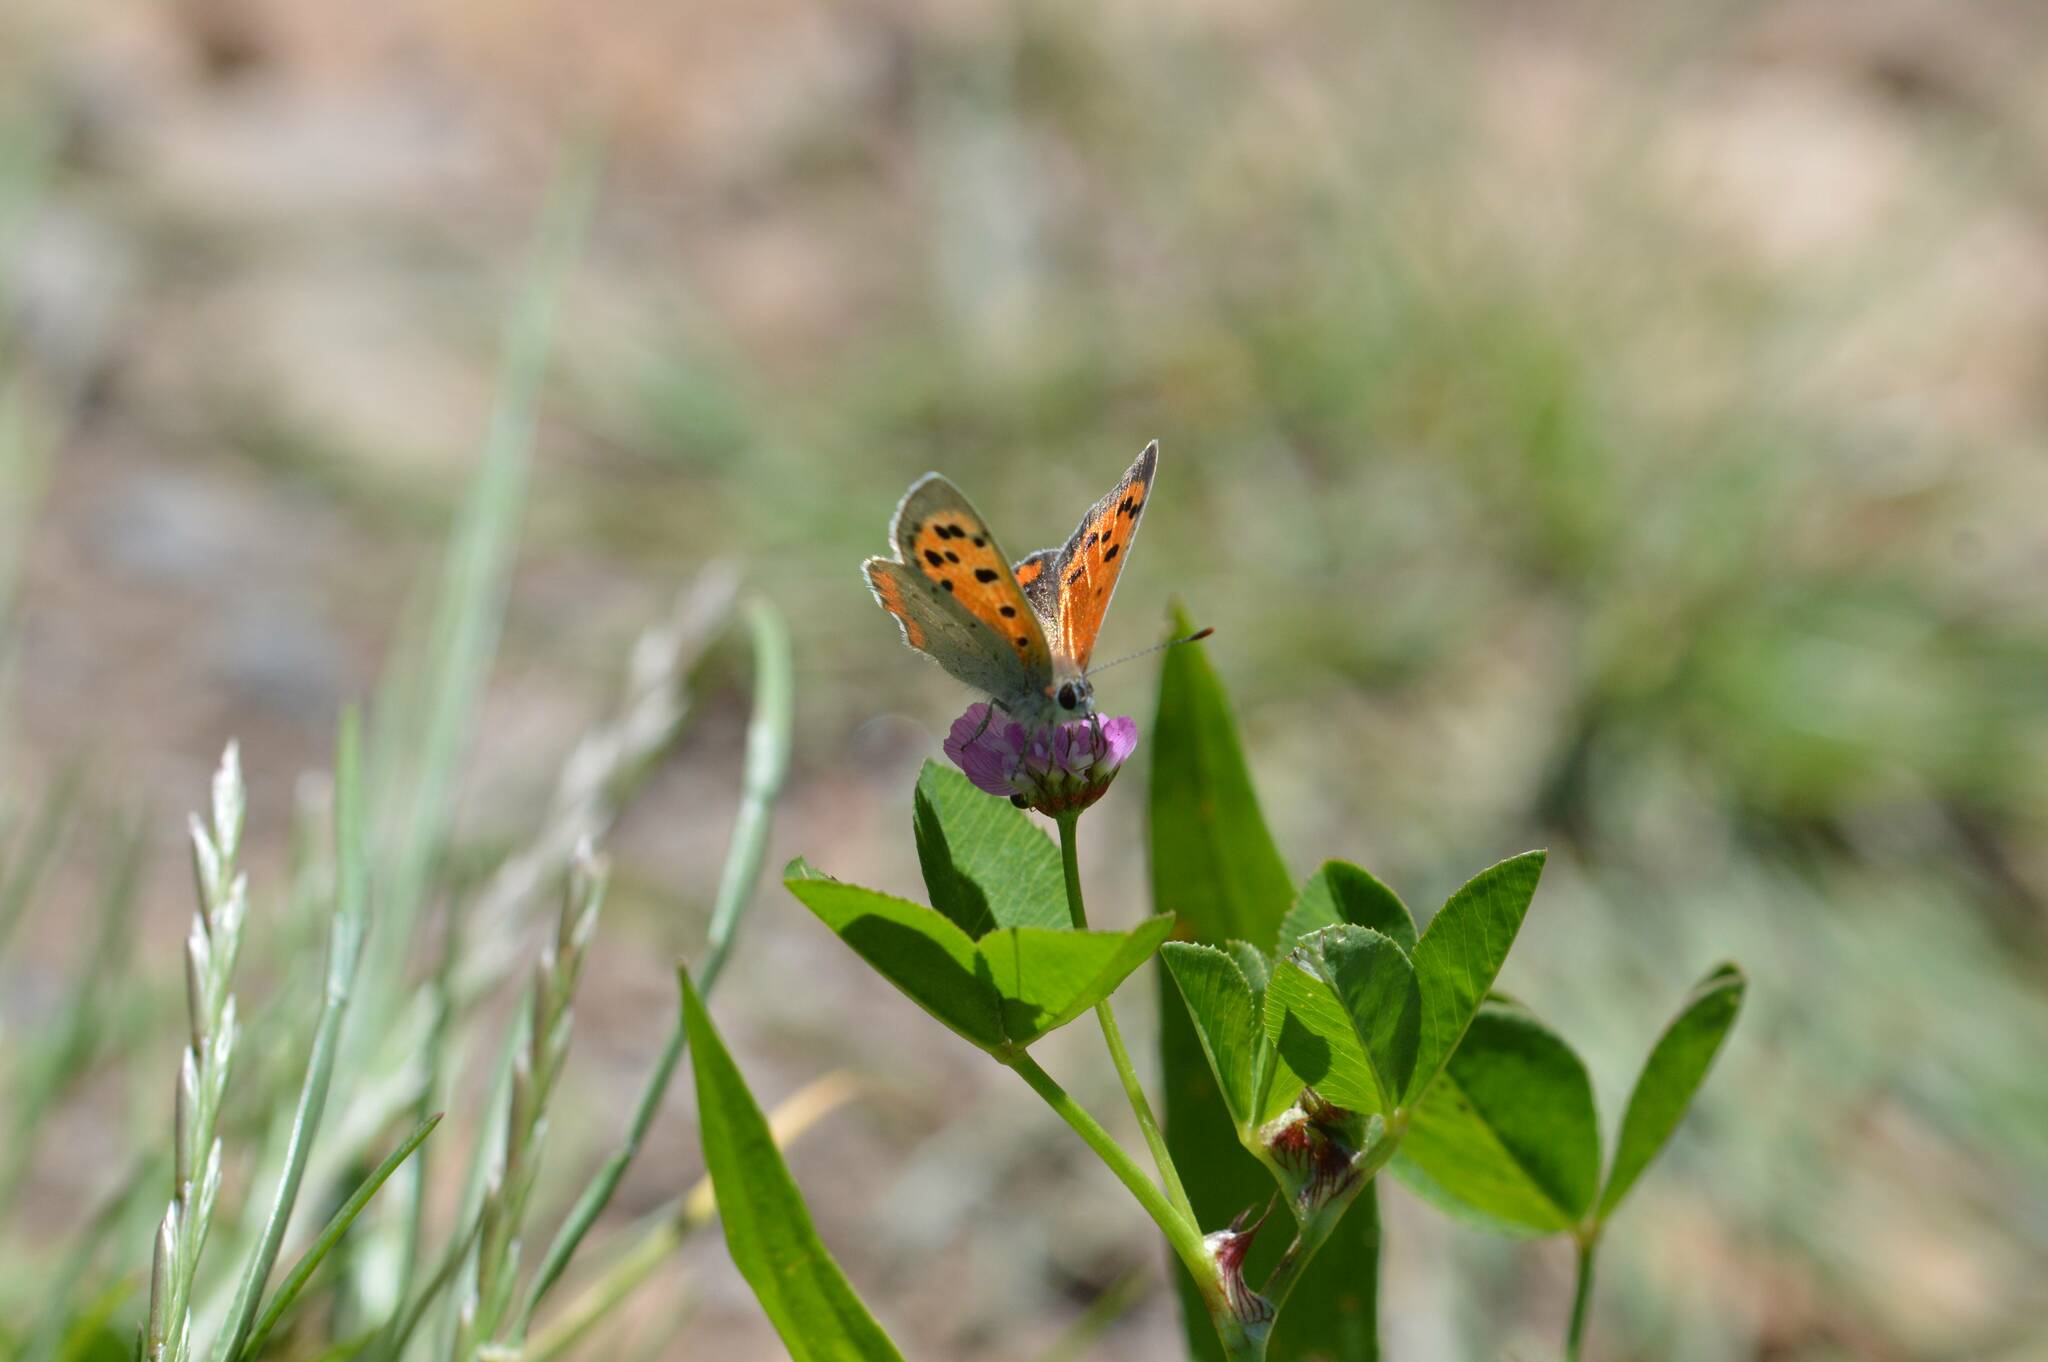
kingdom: Animalia
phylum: Arthropoda
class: Insecta
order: Lepidoptera
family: Lycaenidae
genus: Lycaena
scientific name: Lycaena phlaeas
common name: Small copper
